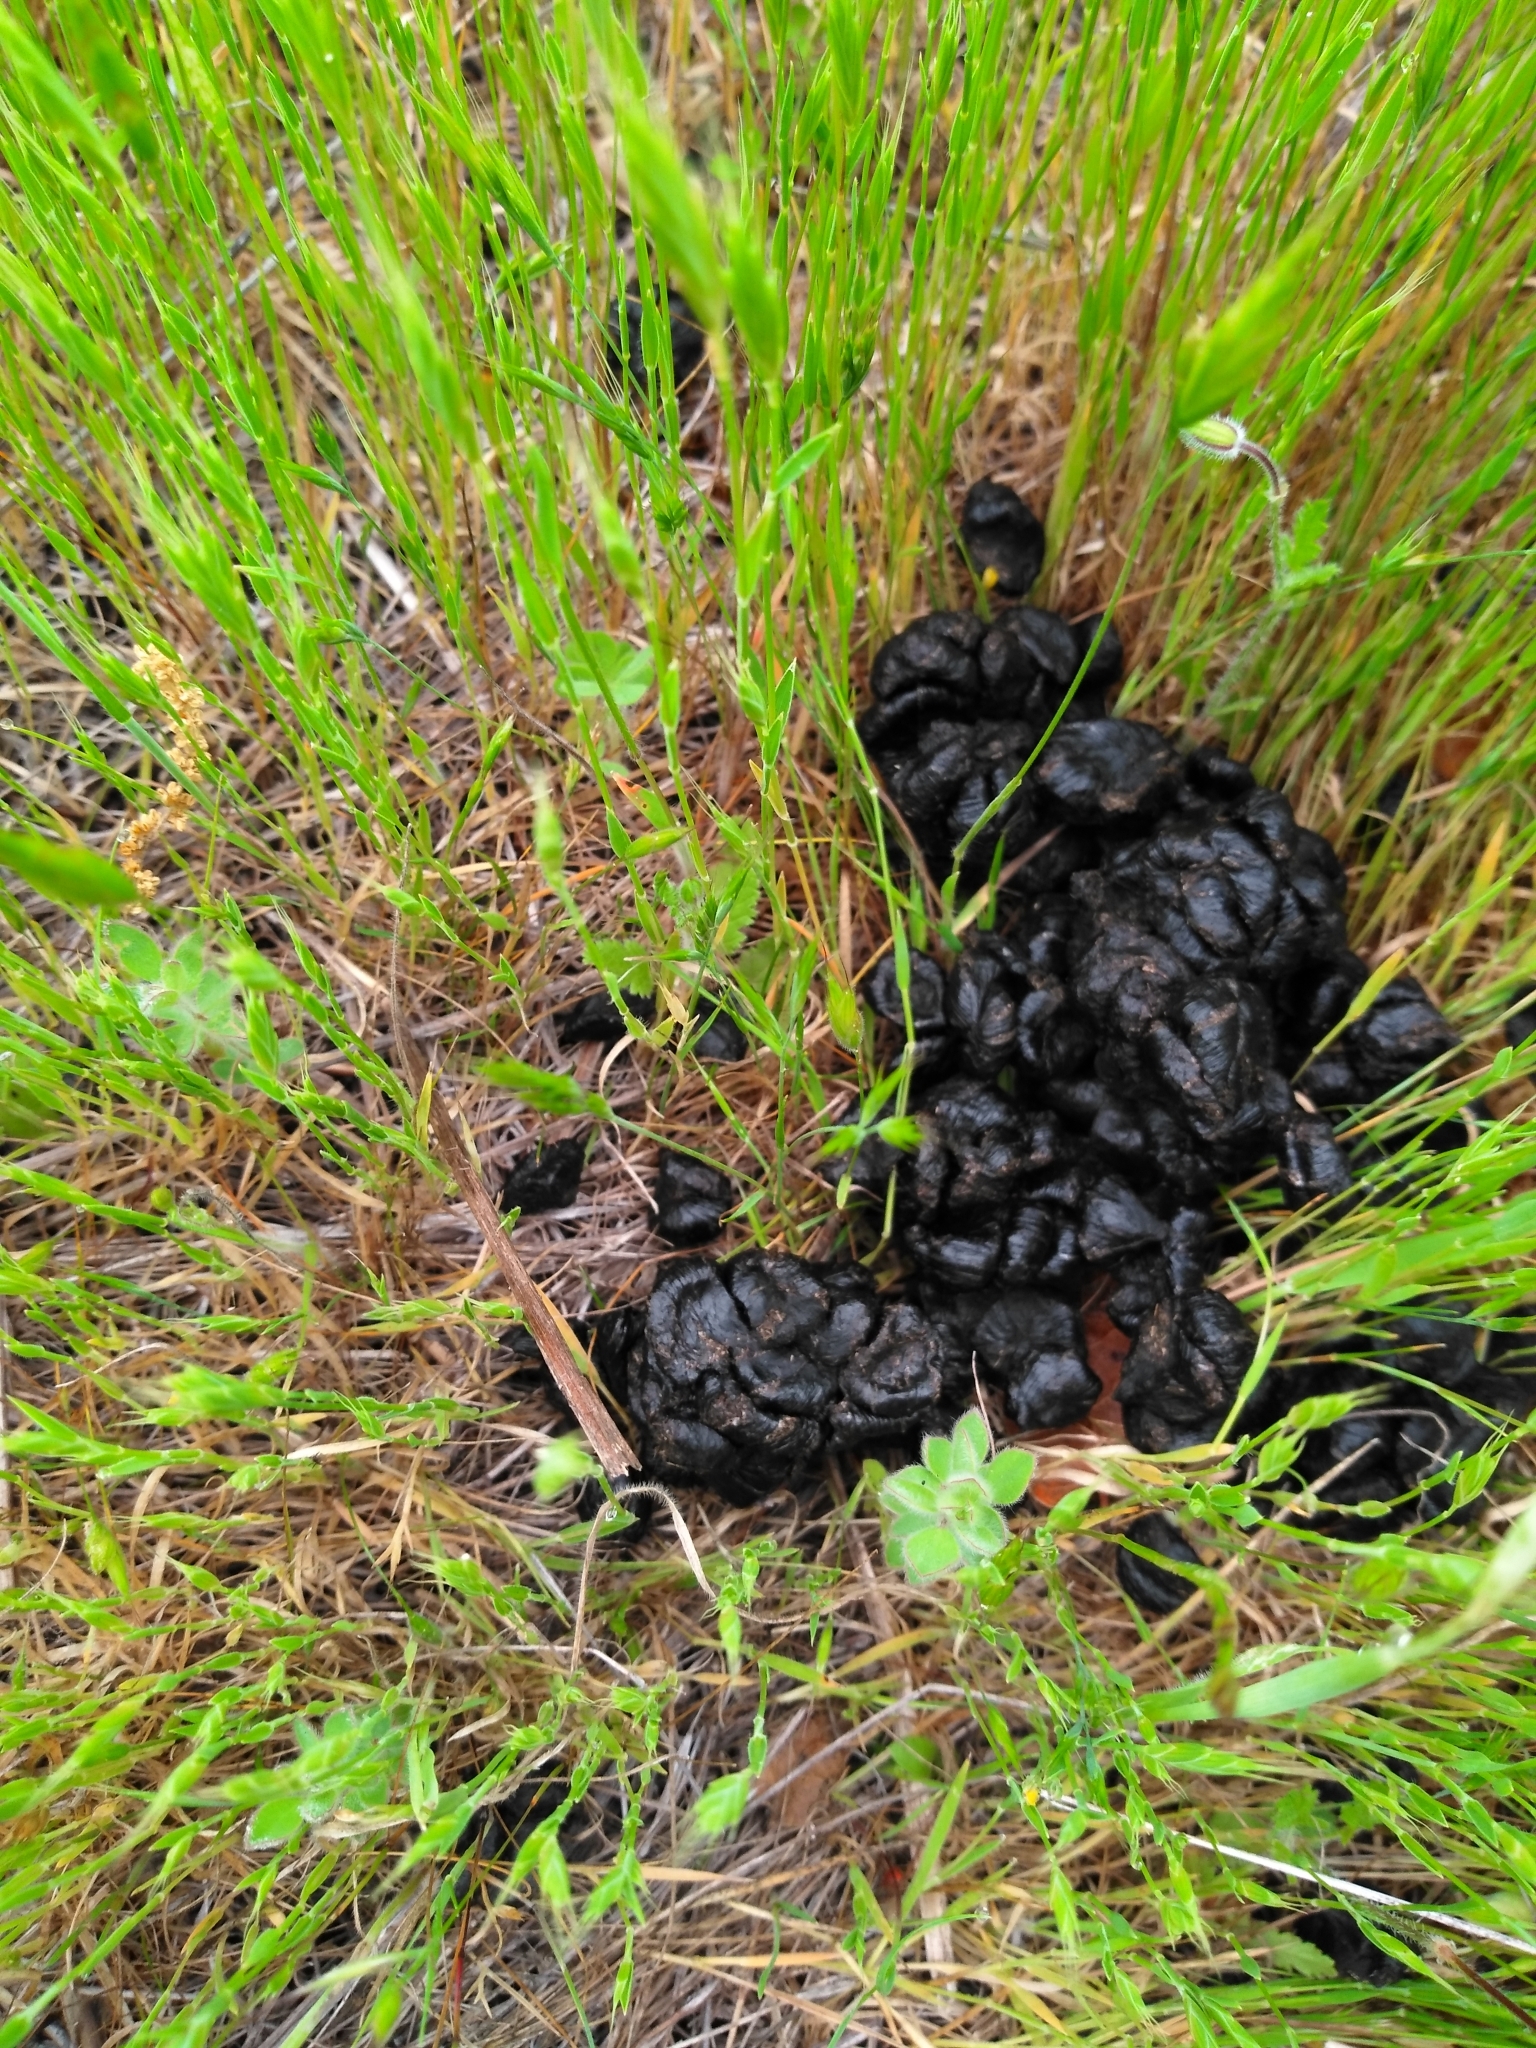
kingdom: Animalia
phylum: Chordata
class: Mammalia
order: Artiodactyla
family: Cervidae
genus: Odocoileus
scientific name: Odocoileus hemionus
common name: Mule deer
